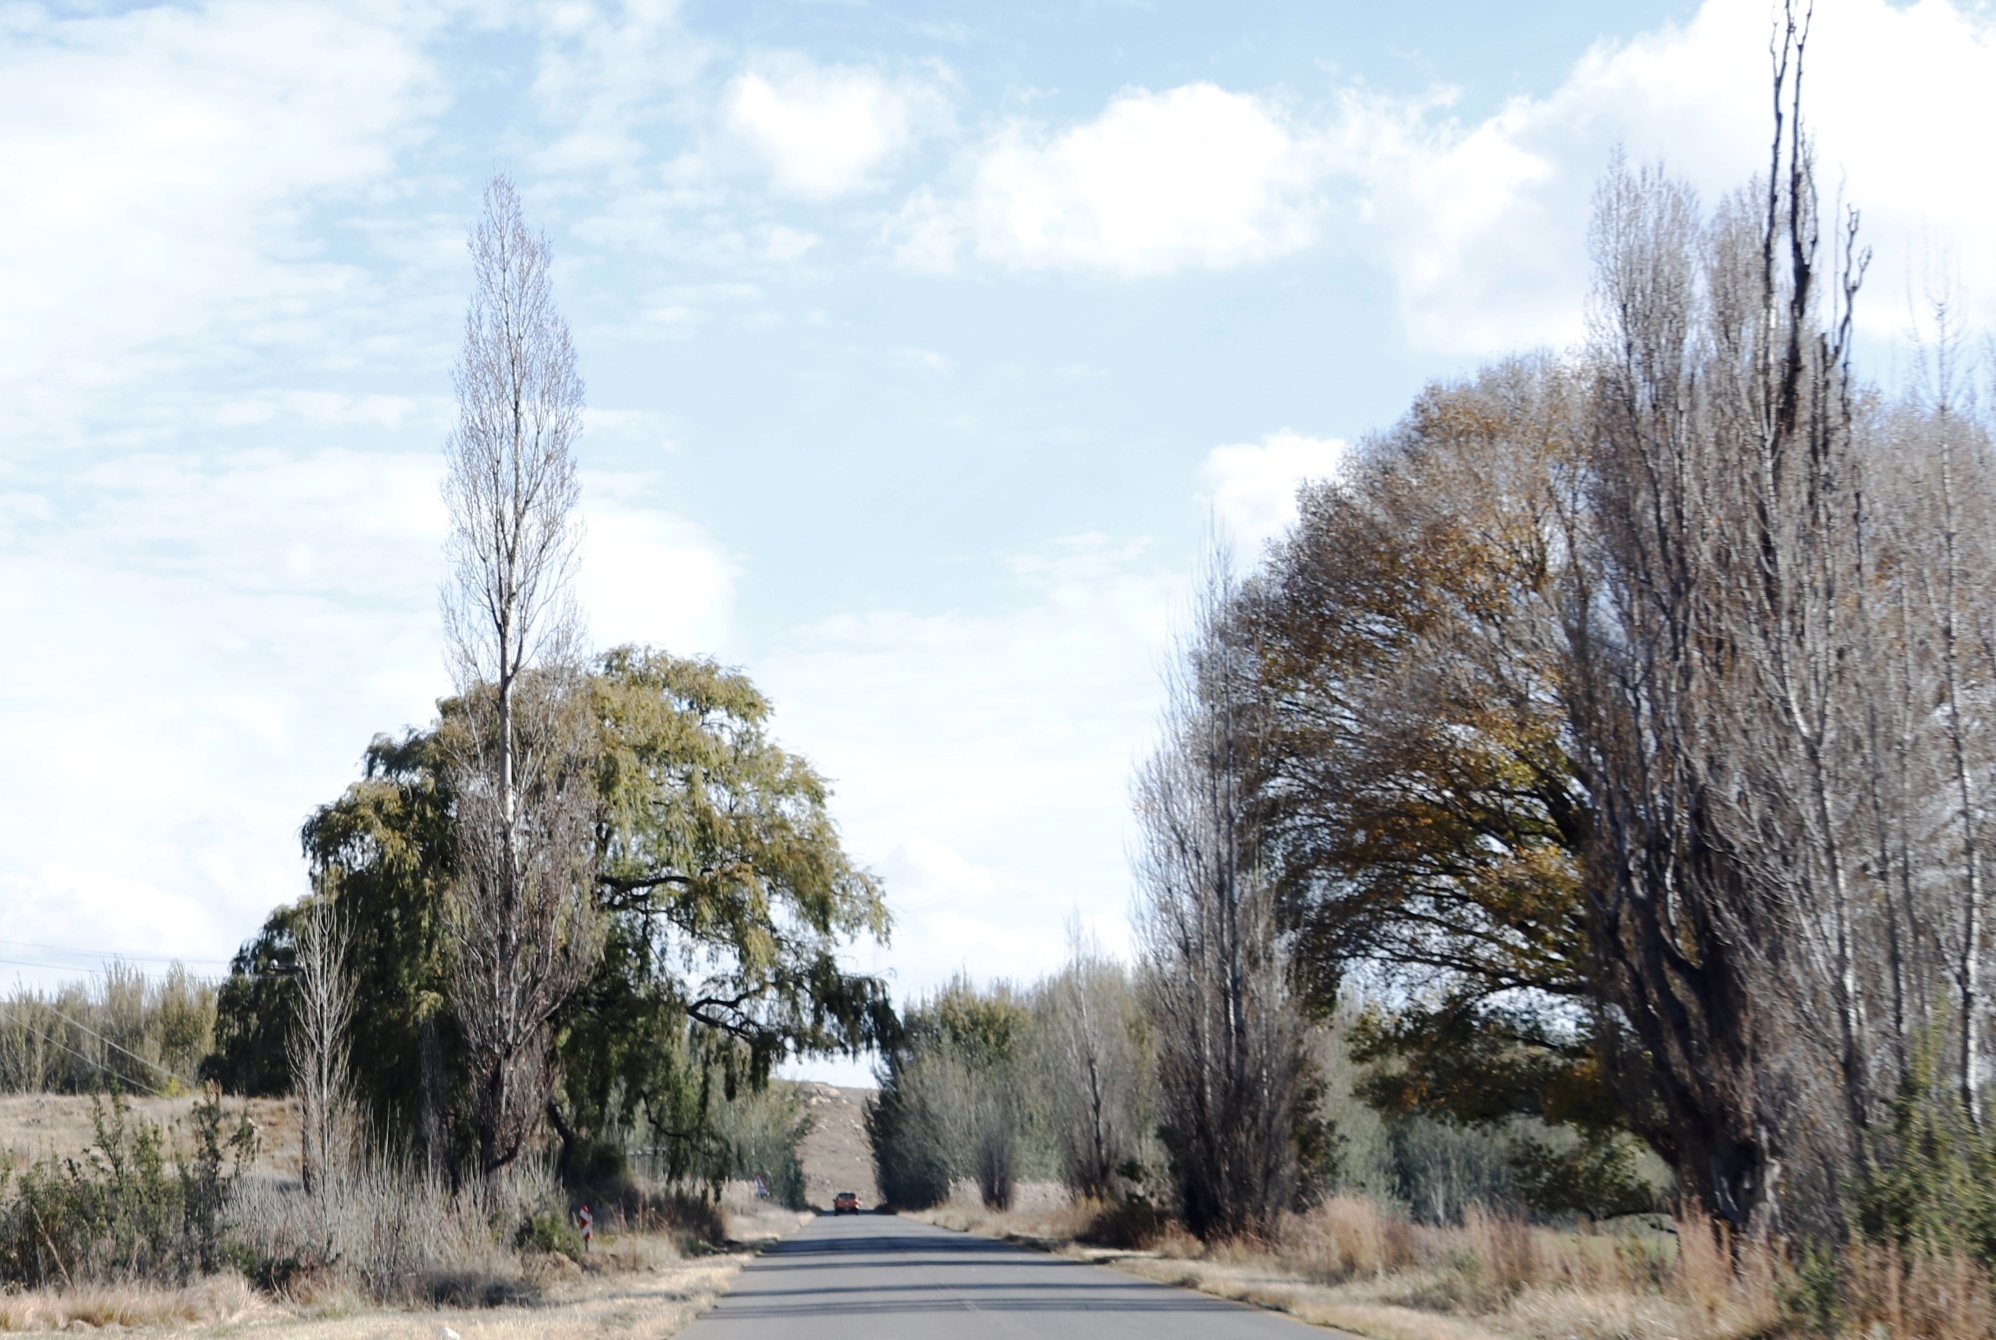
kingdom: Plantae
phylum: Tracheophyta
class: Magnoliopsida
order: Malpighiales
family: Salicaceae
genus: Populus
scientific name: Populus nigra
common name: Black poplar
